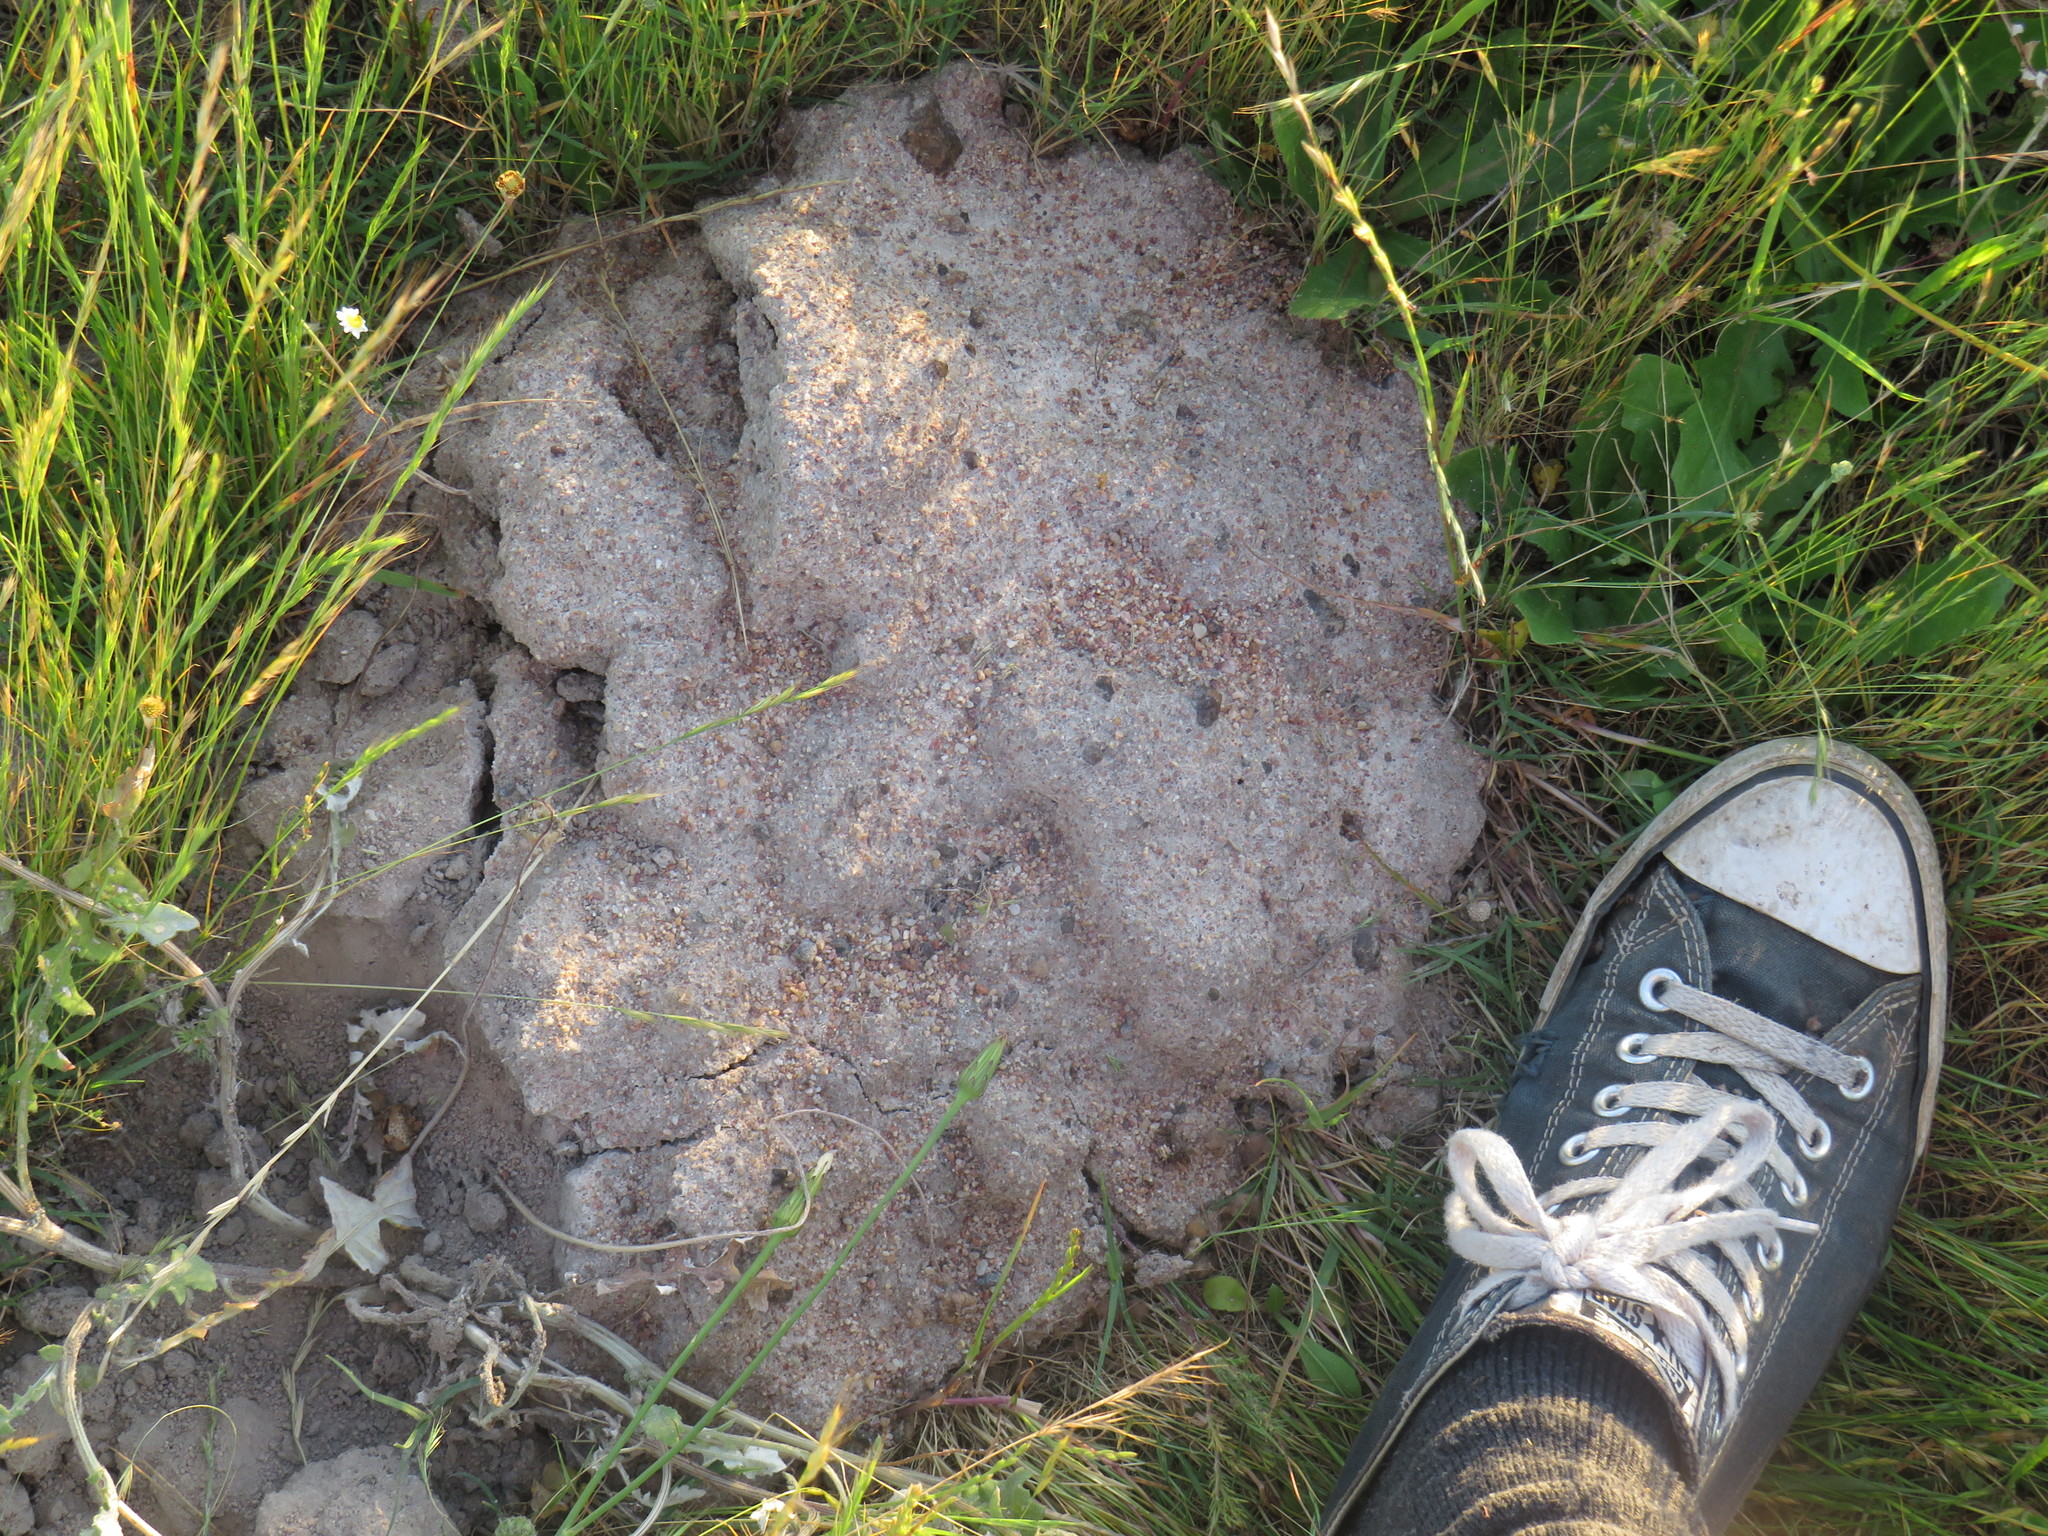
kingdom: Animalia
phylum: Chordata
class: Mammalia
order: Rodentia
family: Bathyergidae
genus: Bathyergus
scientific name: Bathyergus suillus
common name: Cape dune mole rat
